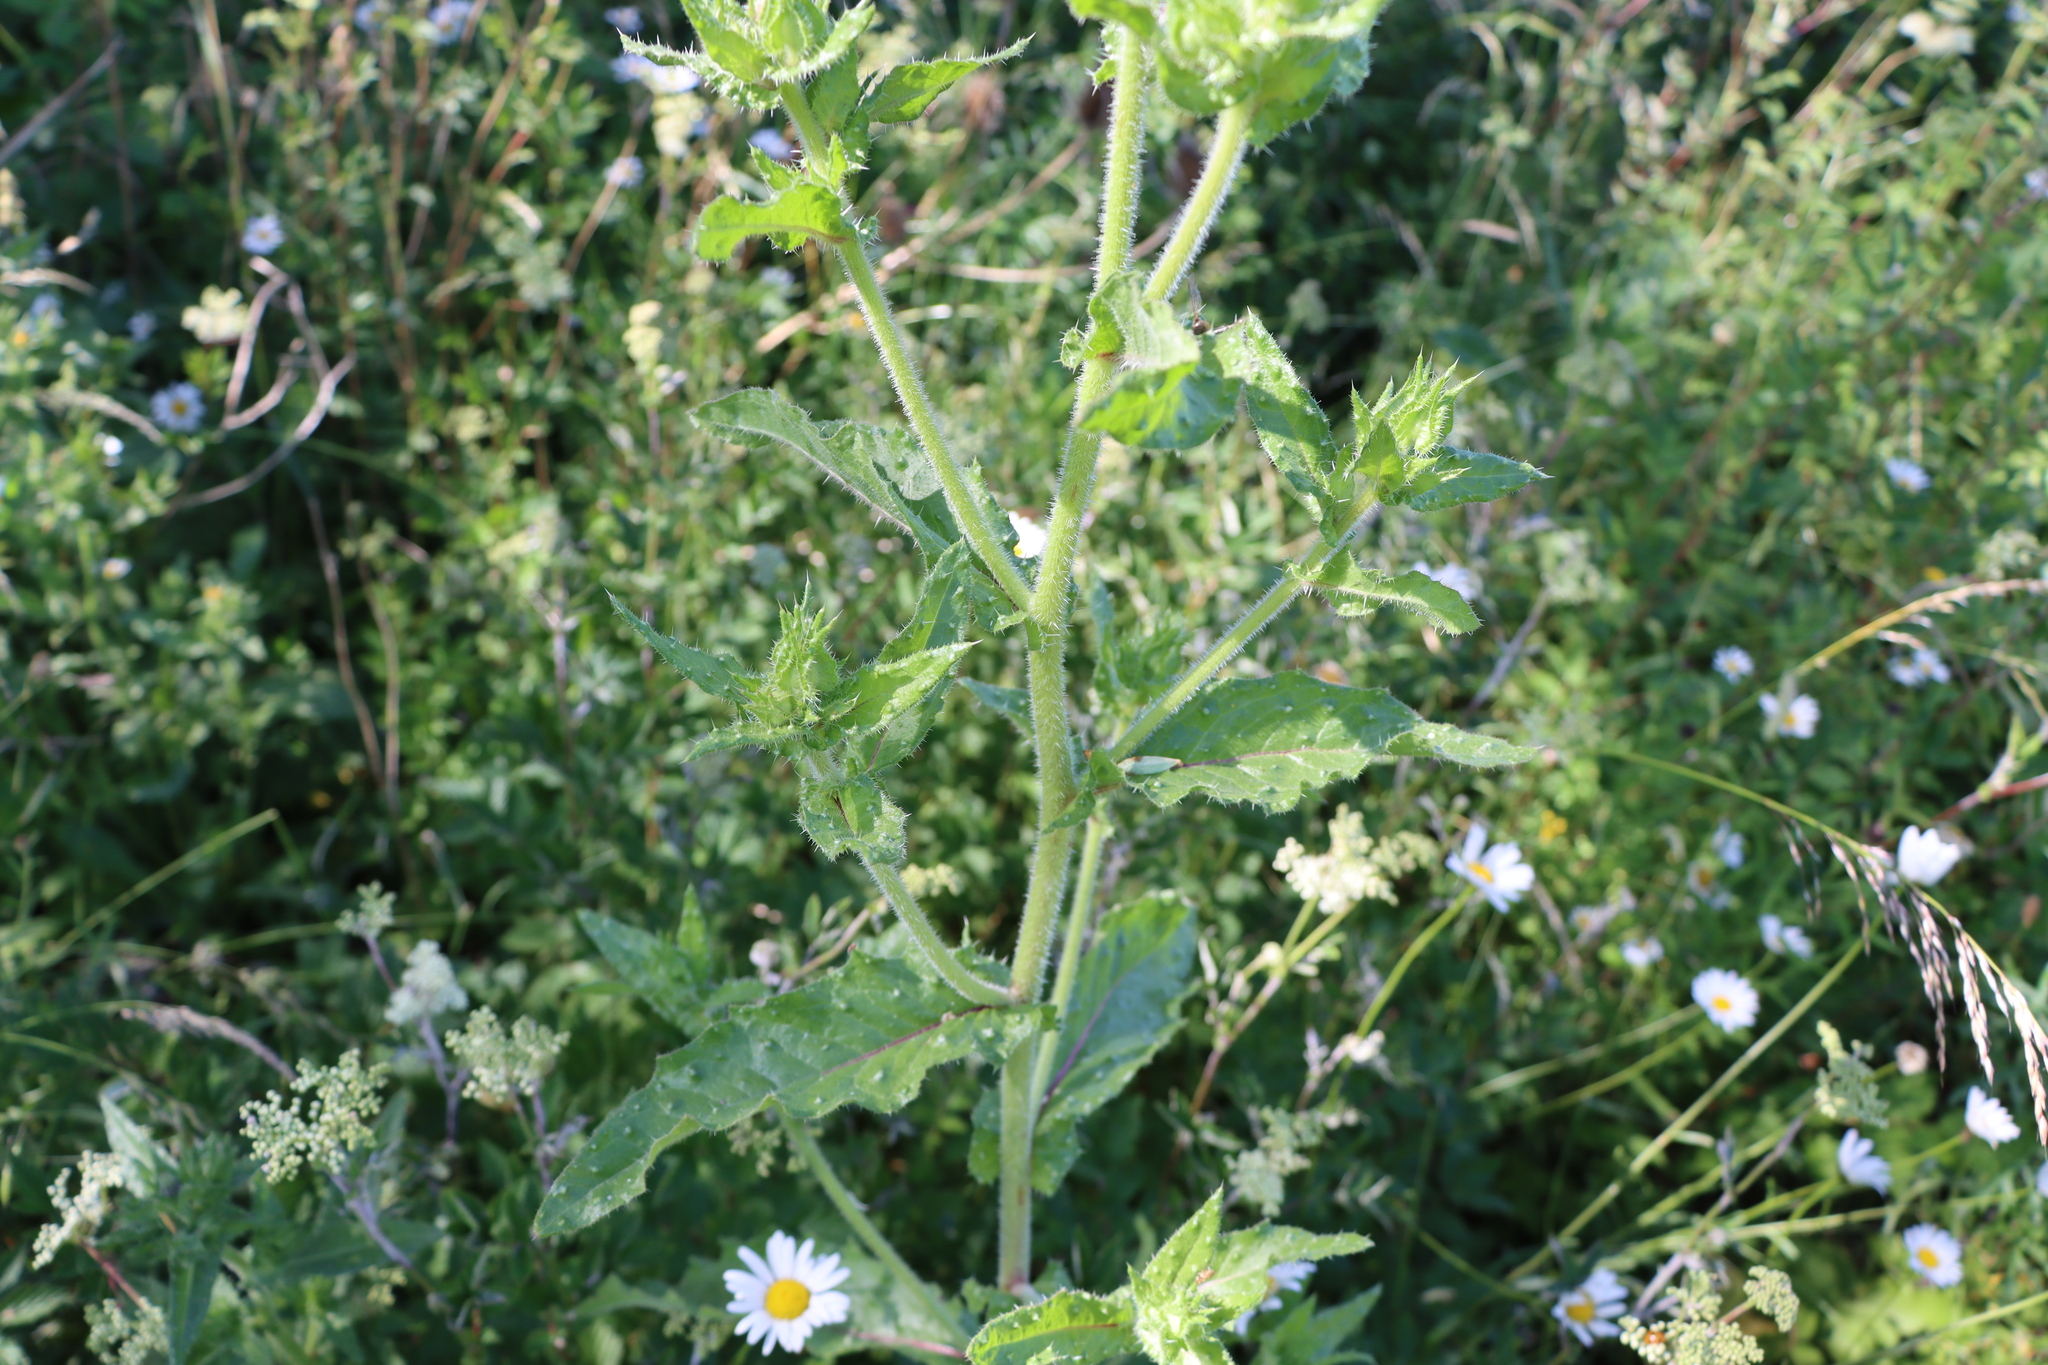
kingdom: Plantae
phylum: Tracheophyta
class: Magnoliopsida
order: Asterales
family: Asteraceae
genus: Helminthotheca
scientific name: Helminthotheca echioides
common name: Ox-tongue
